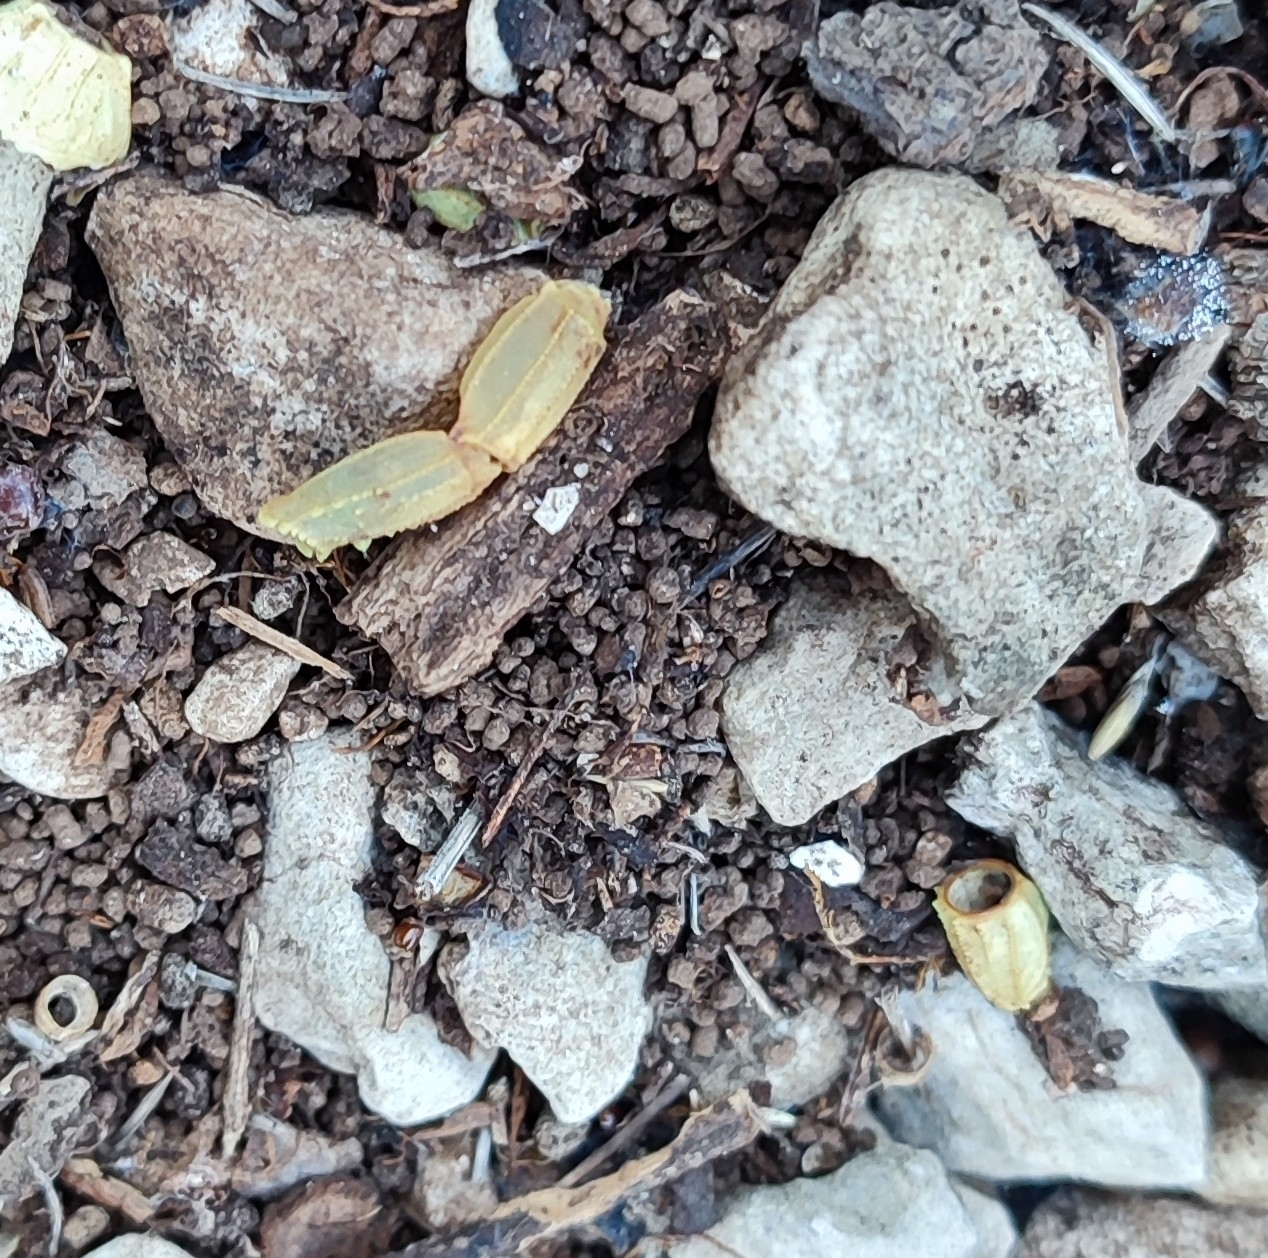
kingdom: Animalia
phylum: Arthropoda
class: Arachnida
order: Scorpiones
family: Buthidae
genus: Buthus
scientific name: Buthus occitanus
